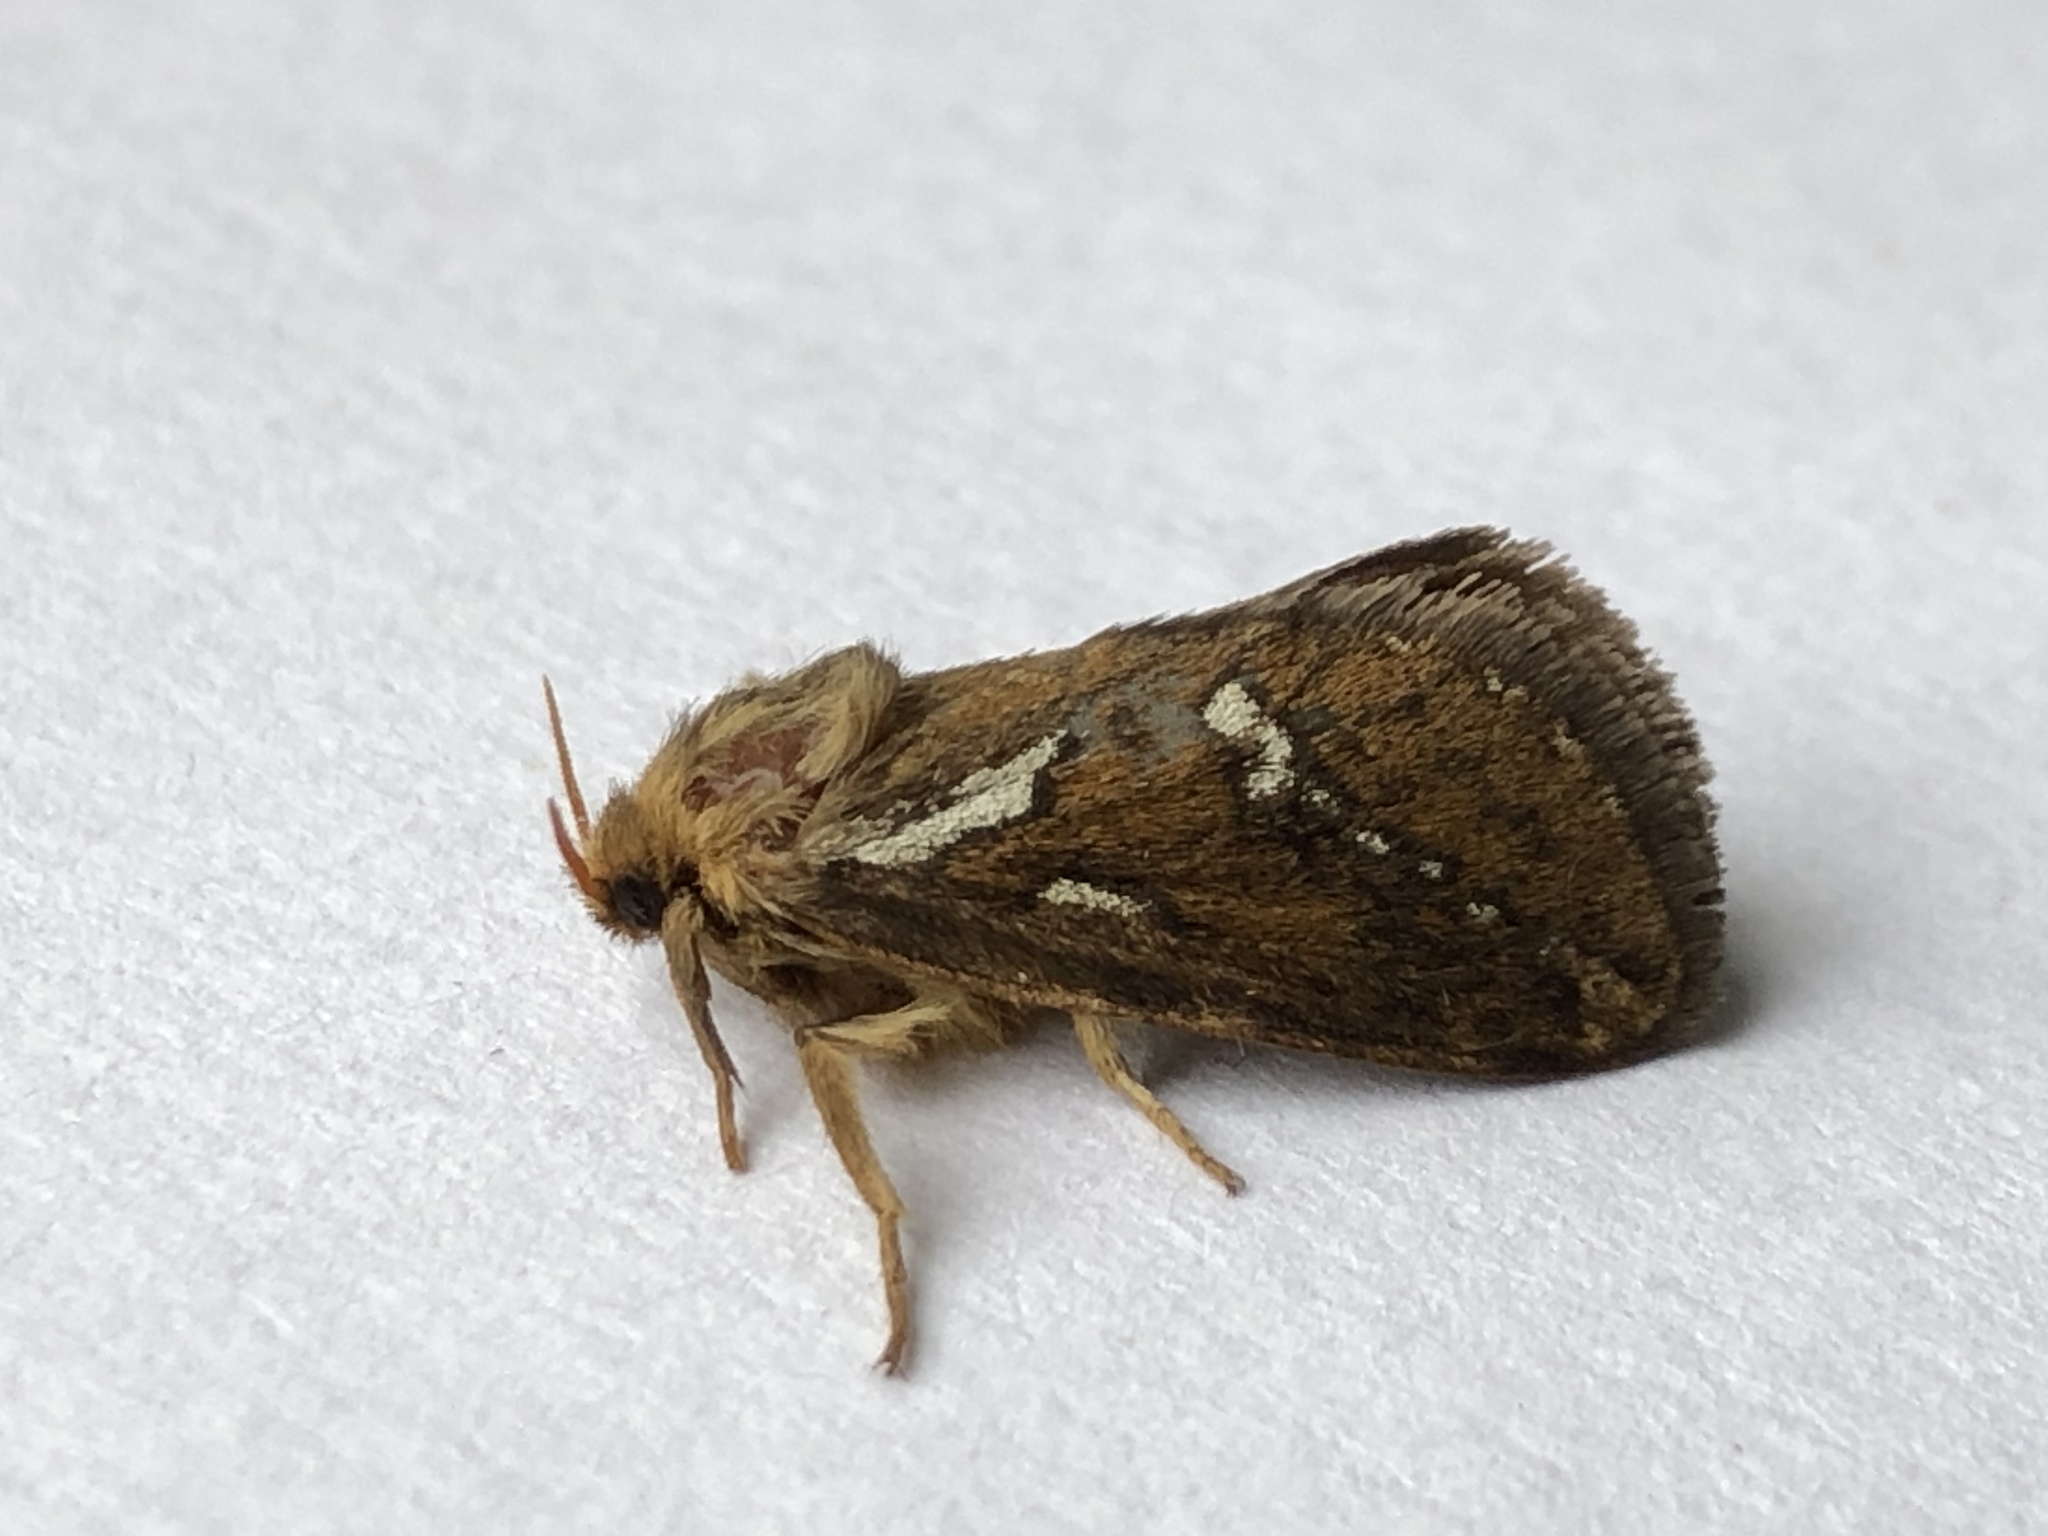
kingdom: Animalia
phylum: Arthropoda
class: Insecta
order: Lepidoptera
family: Hepialidae
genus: Korscheltellus
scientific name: Korscheltellus lupulina
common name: Common swift
